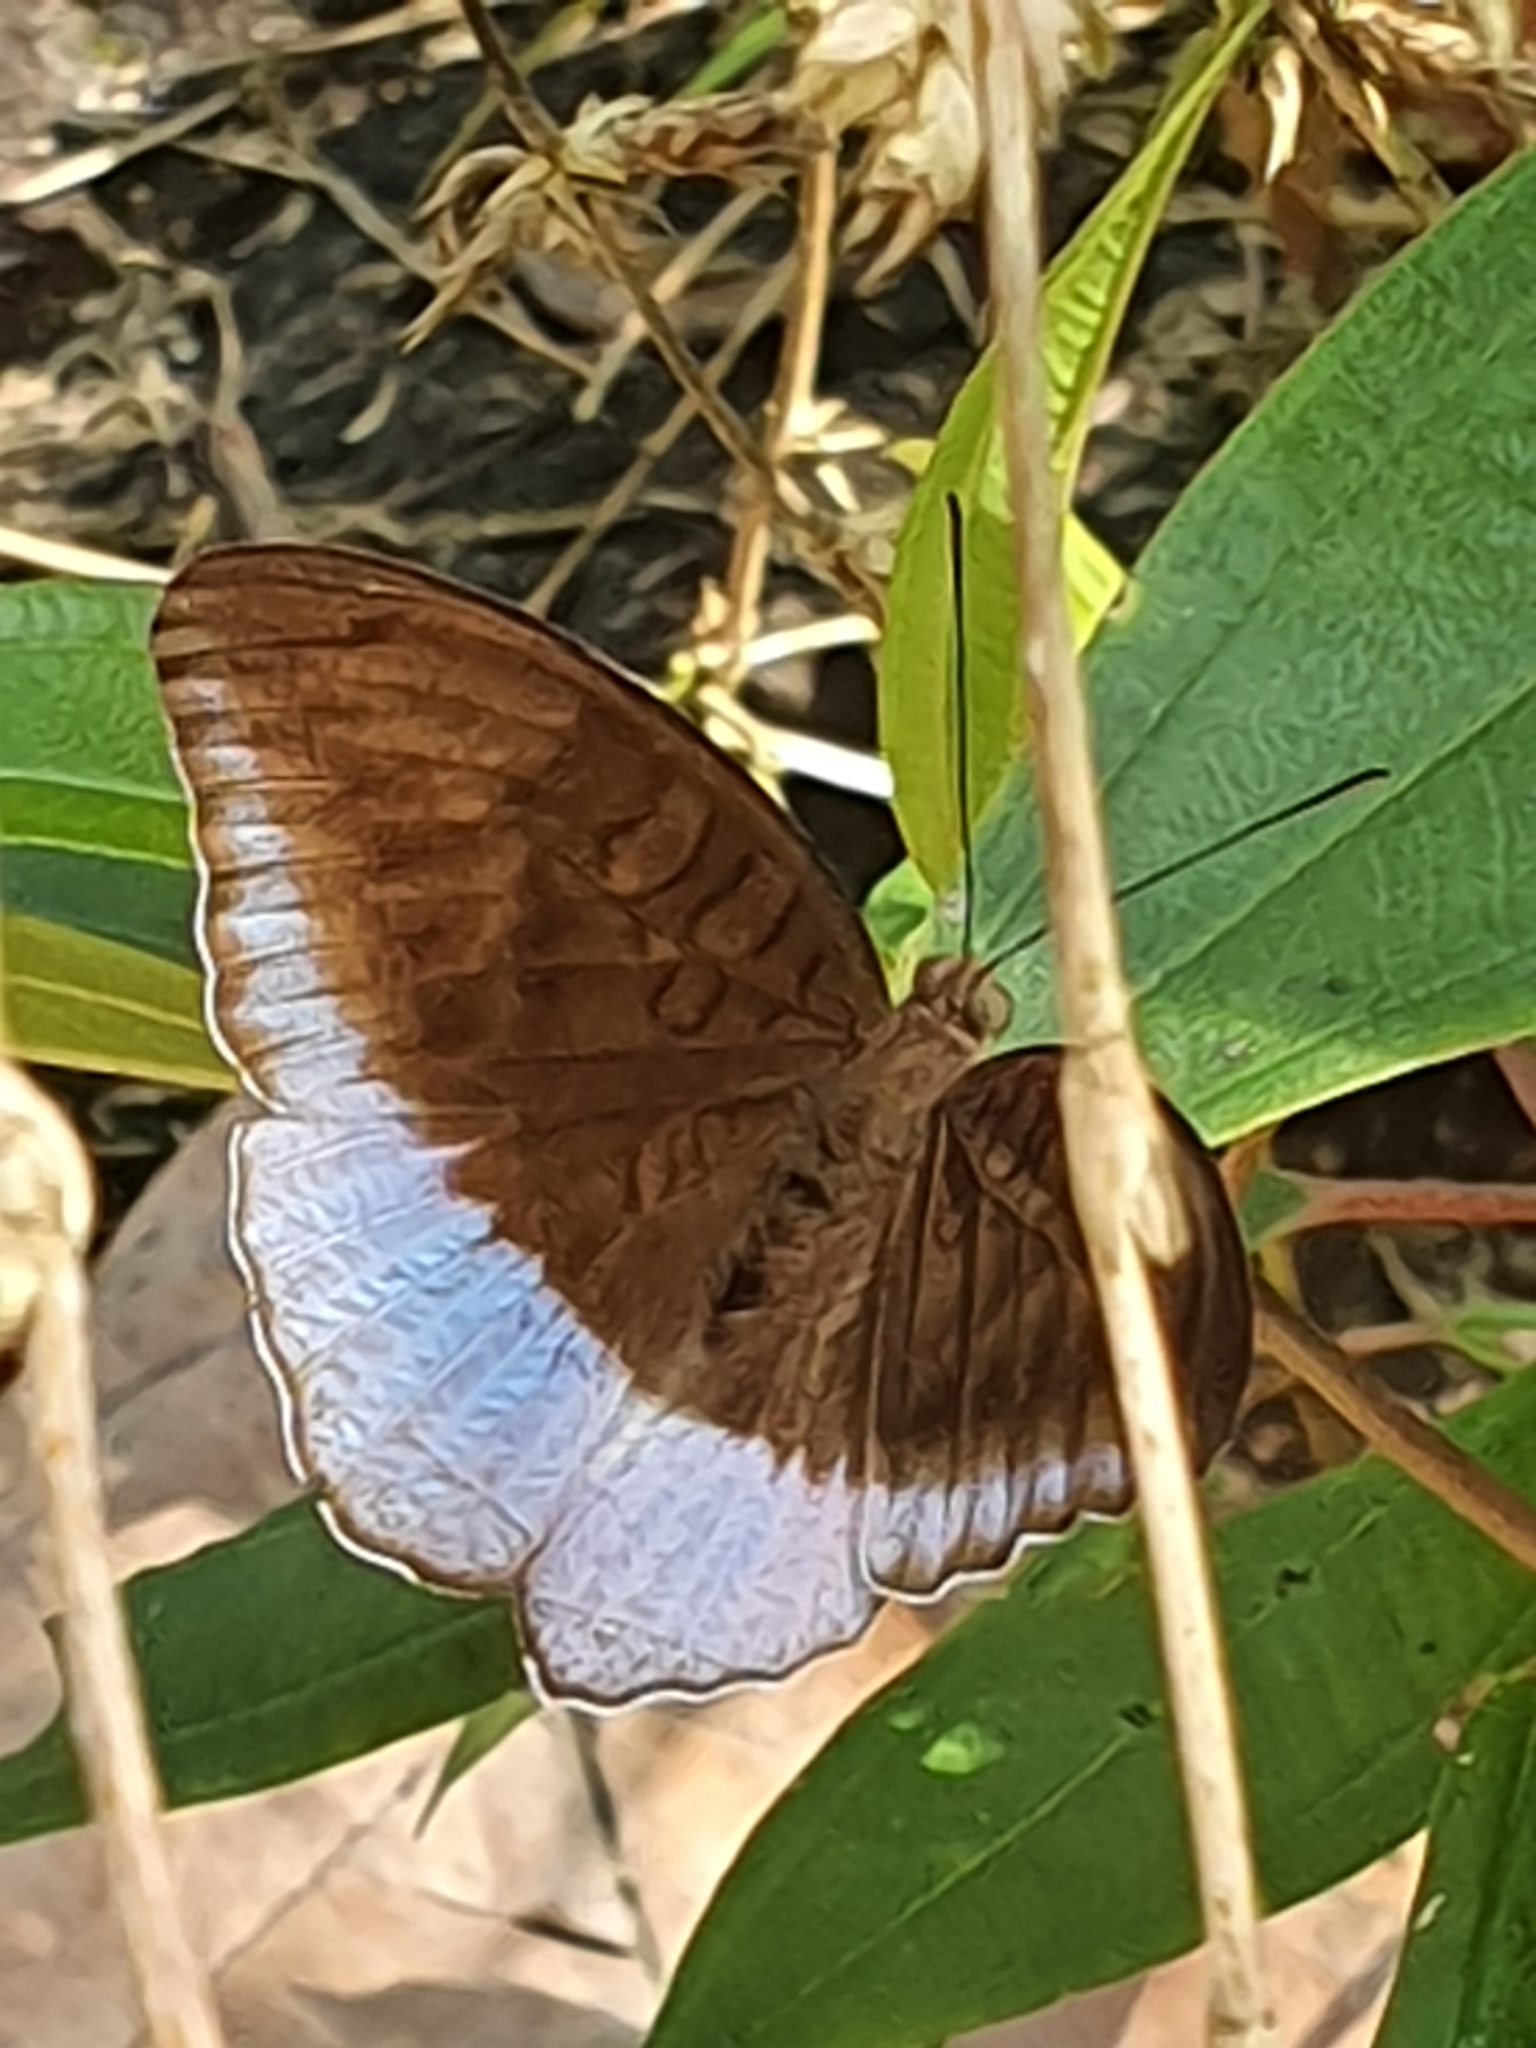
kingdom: Animalia
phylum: Arthropoda
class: Insecta
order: Lepidoptera
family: Nymphalidae
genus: Tanaecia
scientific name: Tanaecia iapis
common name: Horsfield's baron
